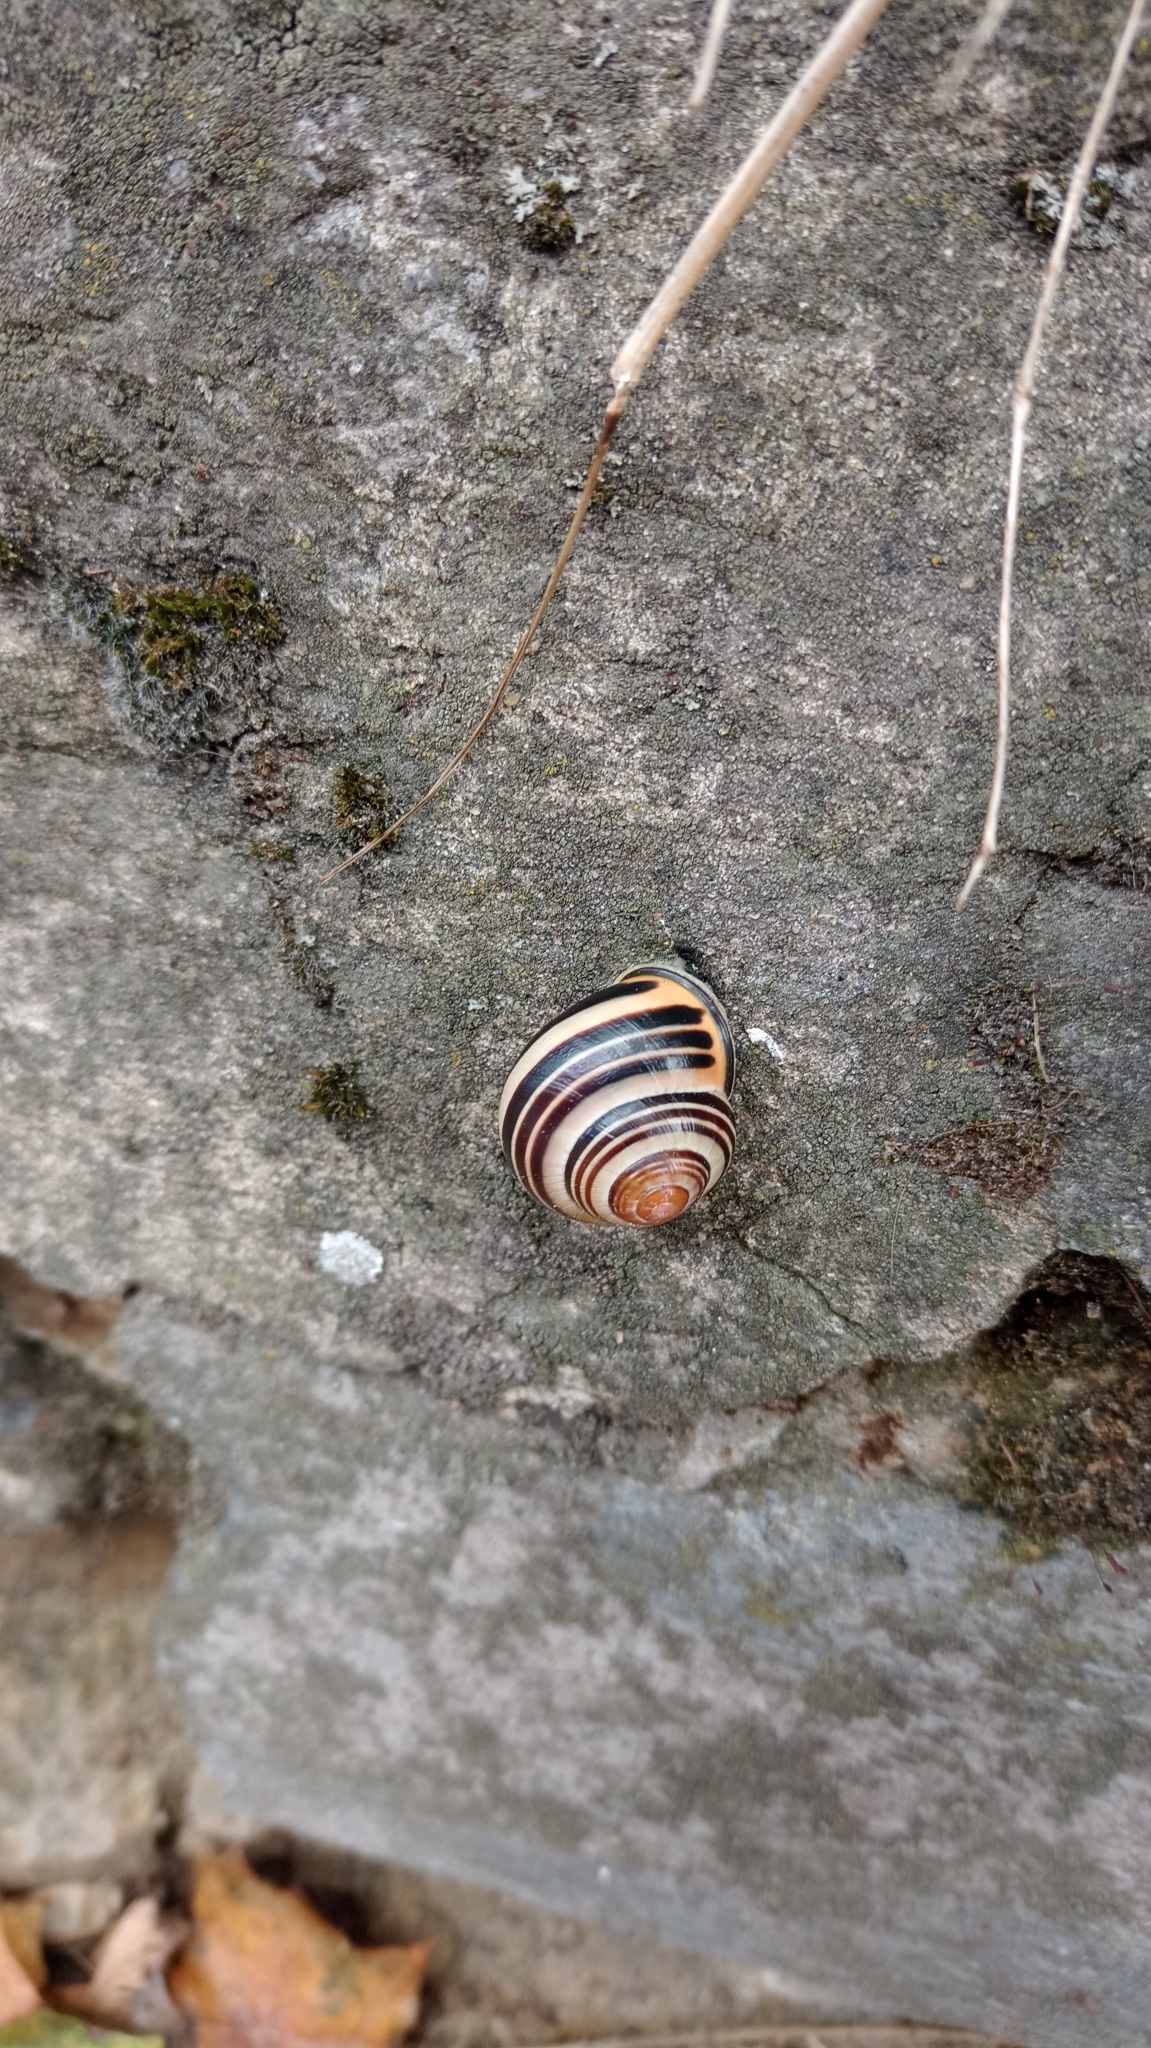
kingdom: Animalia
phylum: Mollusca
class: Gastropoda
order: Stylommatophora
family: Helicidae
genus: Cepaea
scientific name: Cepaea nemoralis
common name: Grovesnail
